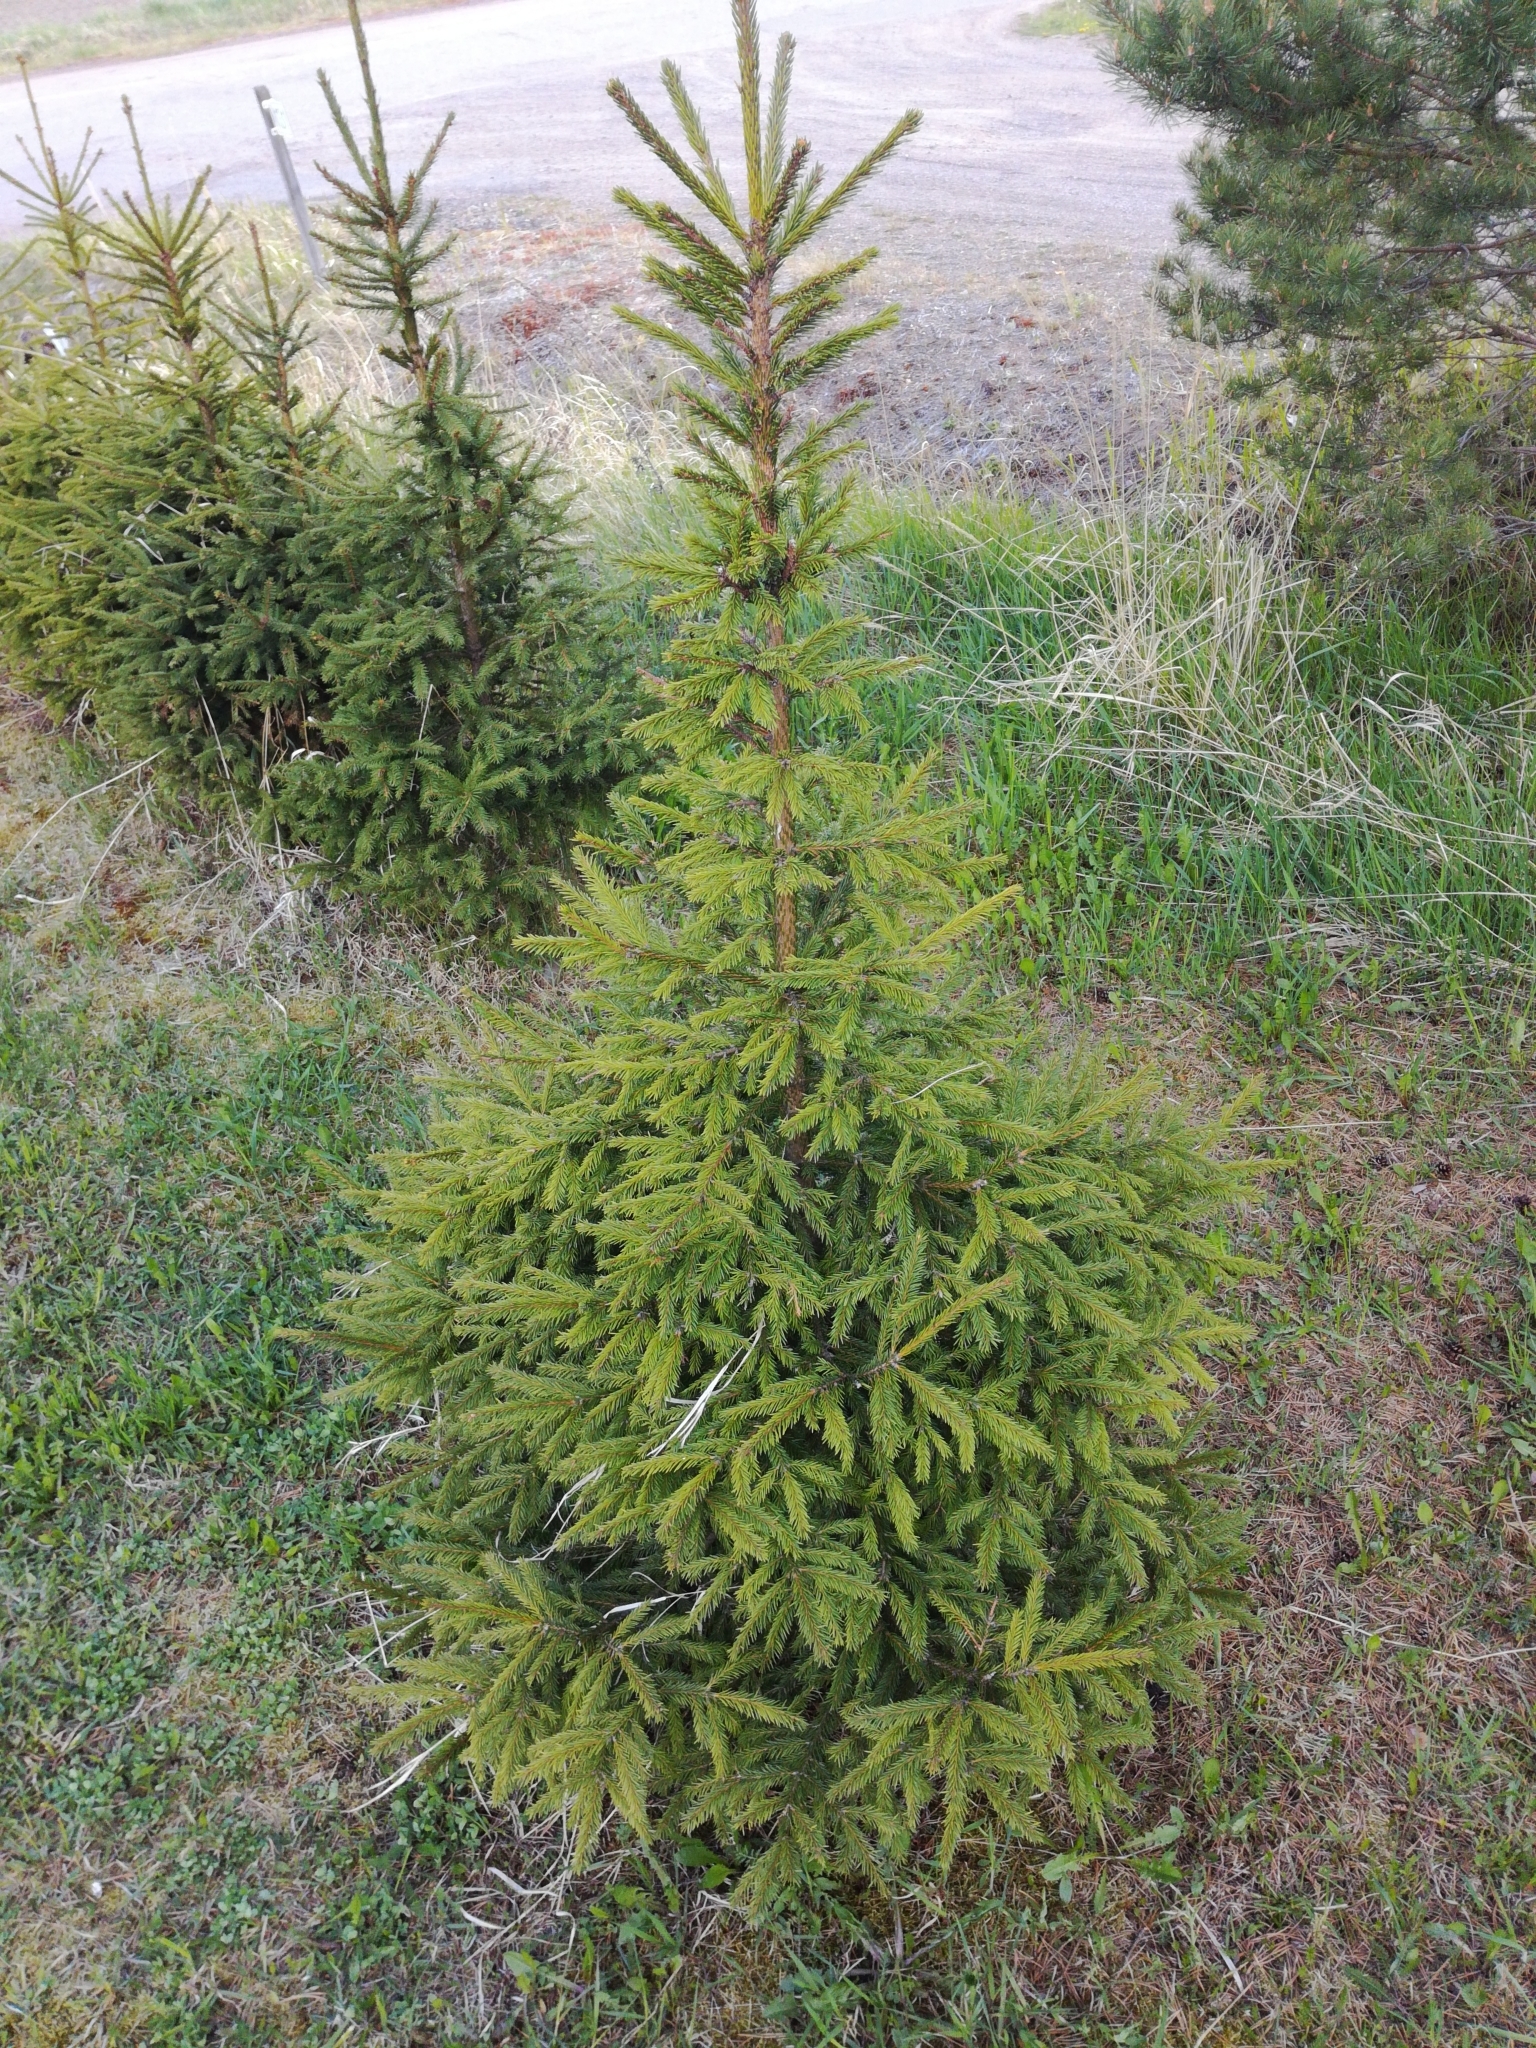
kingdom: Plantae
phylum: Tracheophyta
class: Pinopsida
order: Pinales
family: Pinaceae
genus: Picea
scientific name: Picea abies
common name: Norway spruce
